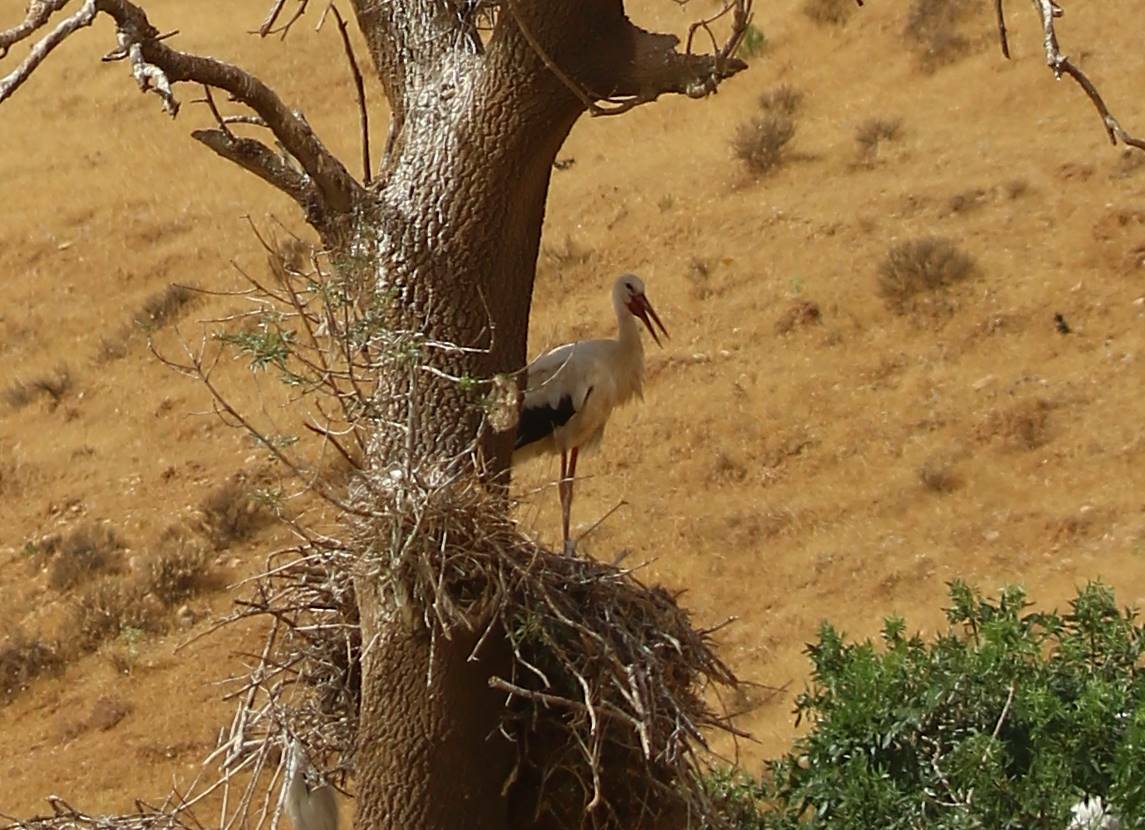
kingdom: Animalia
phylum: Chordata
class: Aves
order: Ciconiiformes
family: Ciconiidae
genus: Ciconia
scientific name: Ciconia ciconia
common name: White stork
